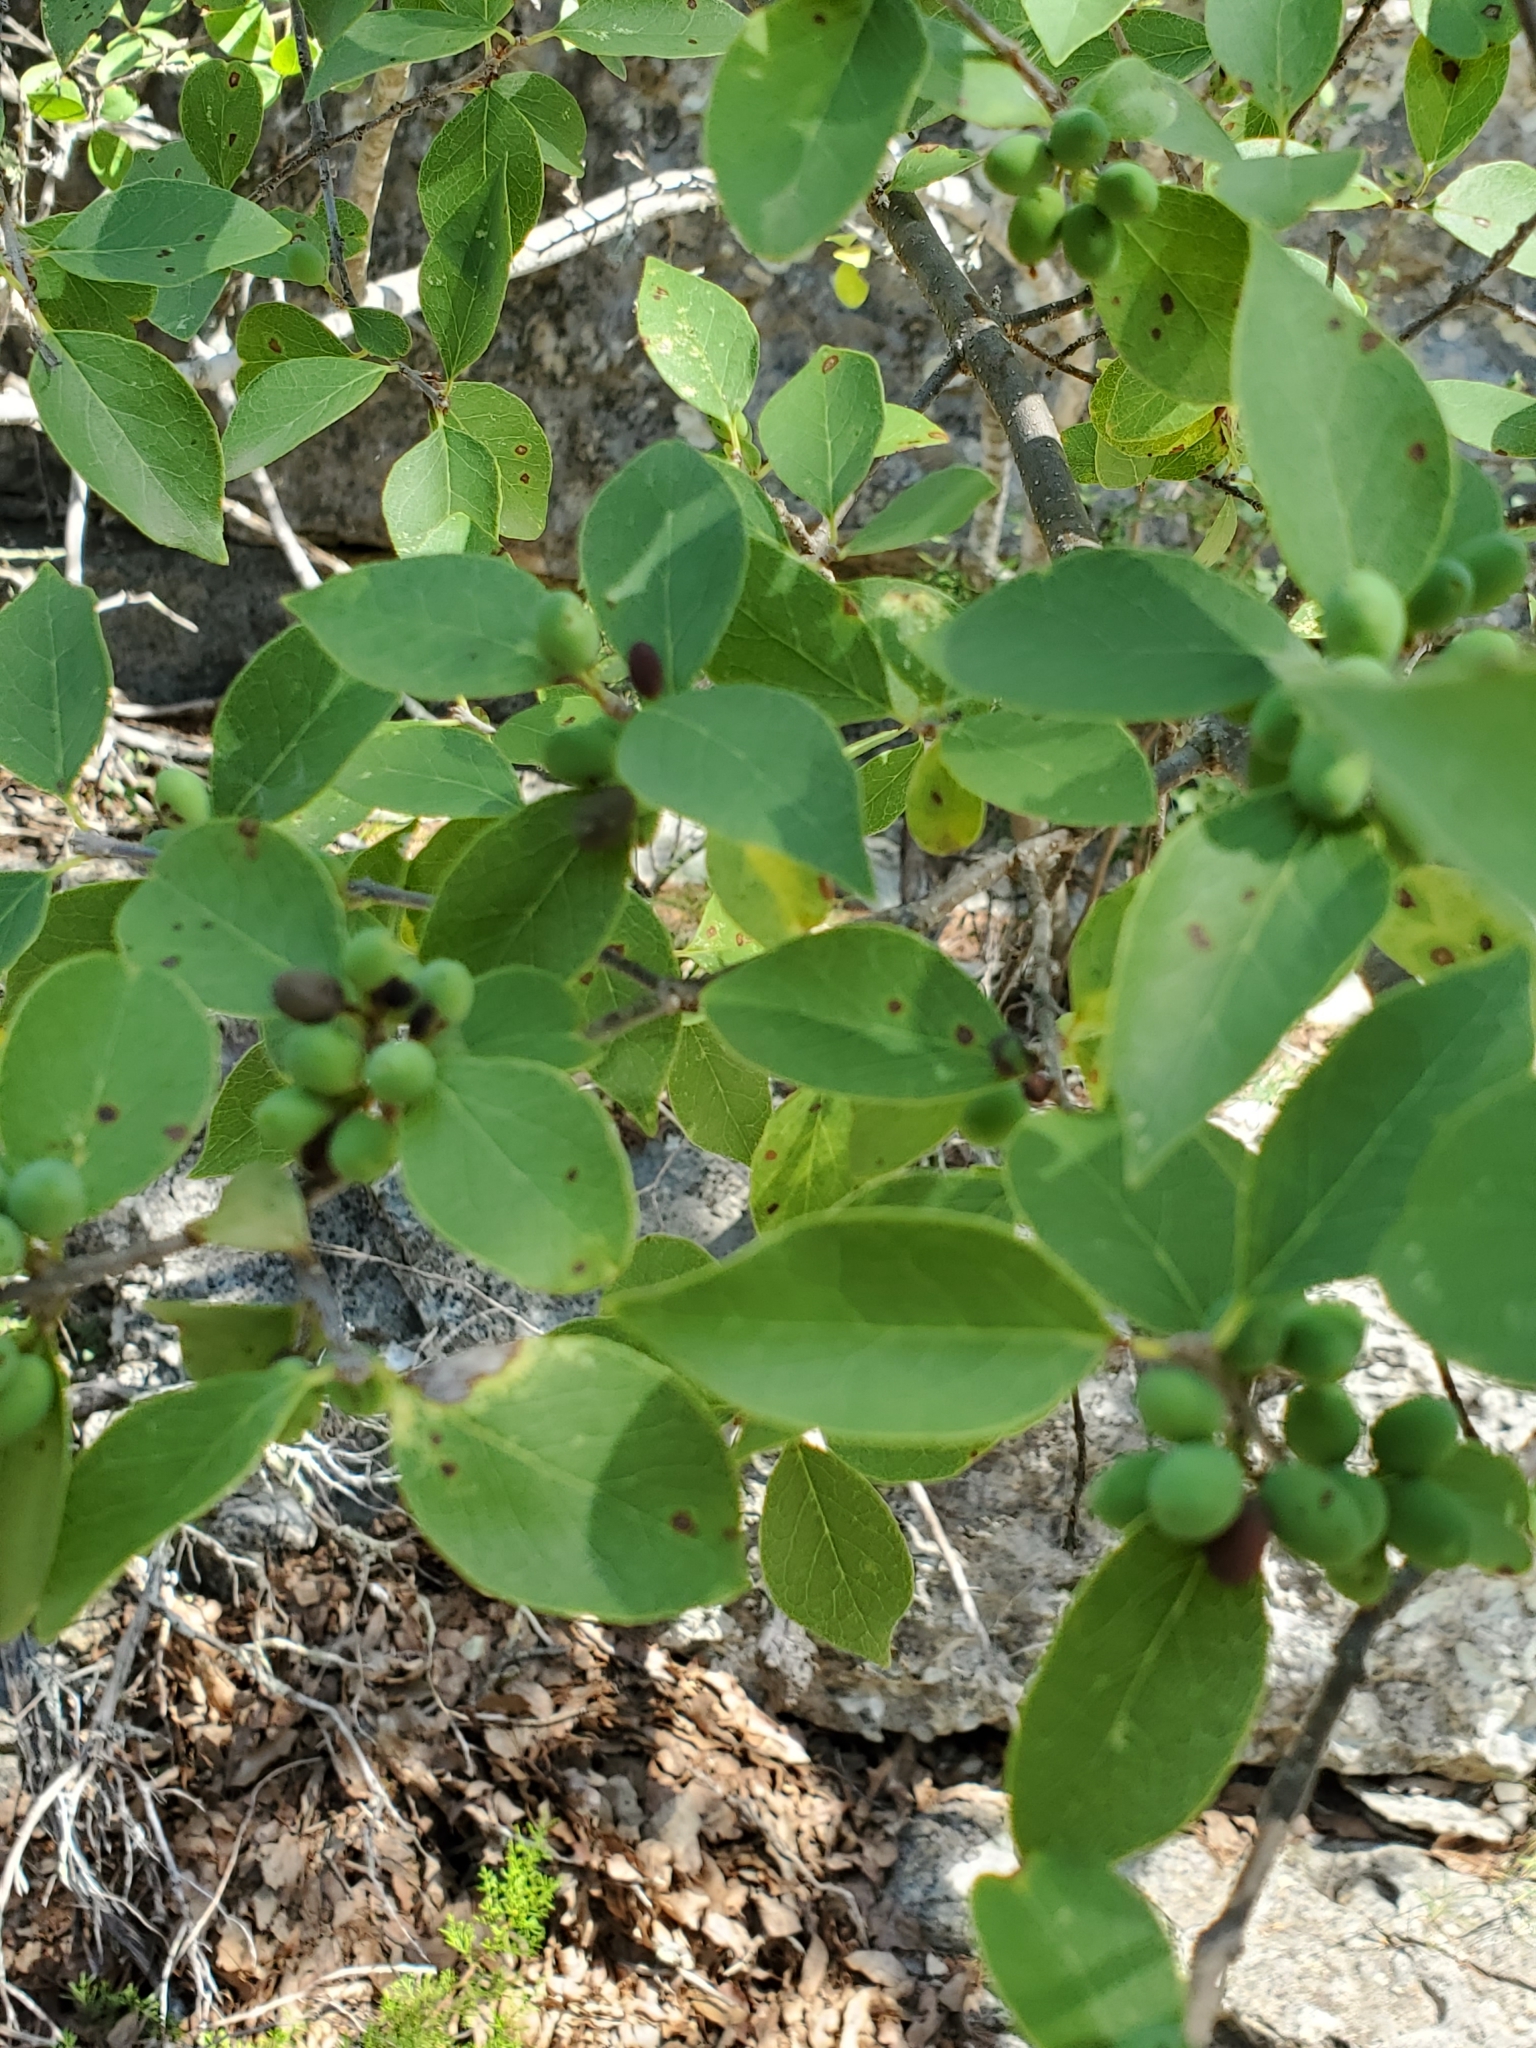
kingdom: Plantae
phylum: Tracheophyta
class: Magnoliopsida
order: Lamiales
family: Oleaceae
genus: Forestiera
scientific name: Forestiera reticulata
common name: Netleaf swamp-privet
